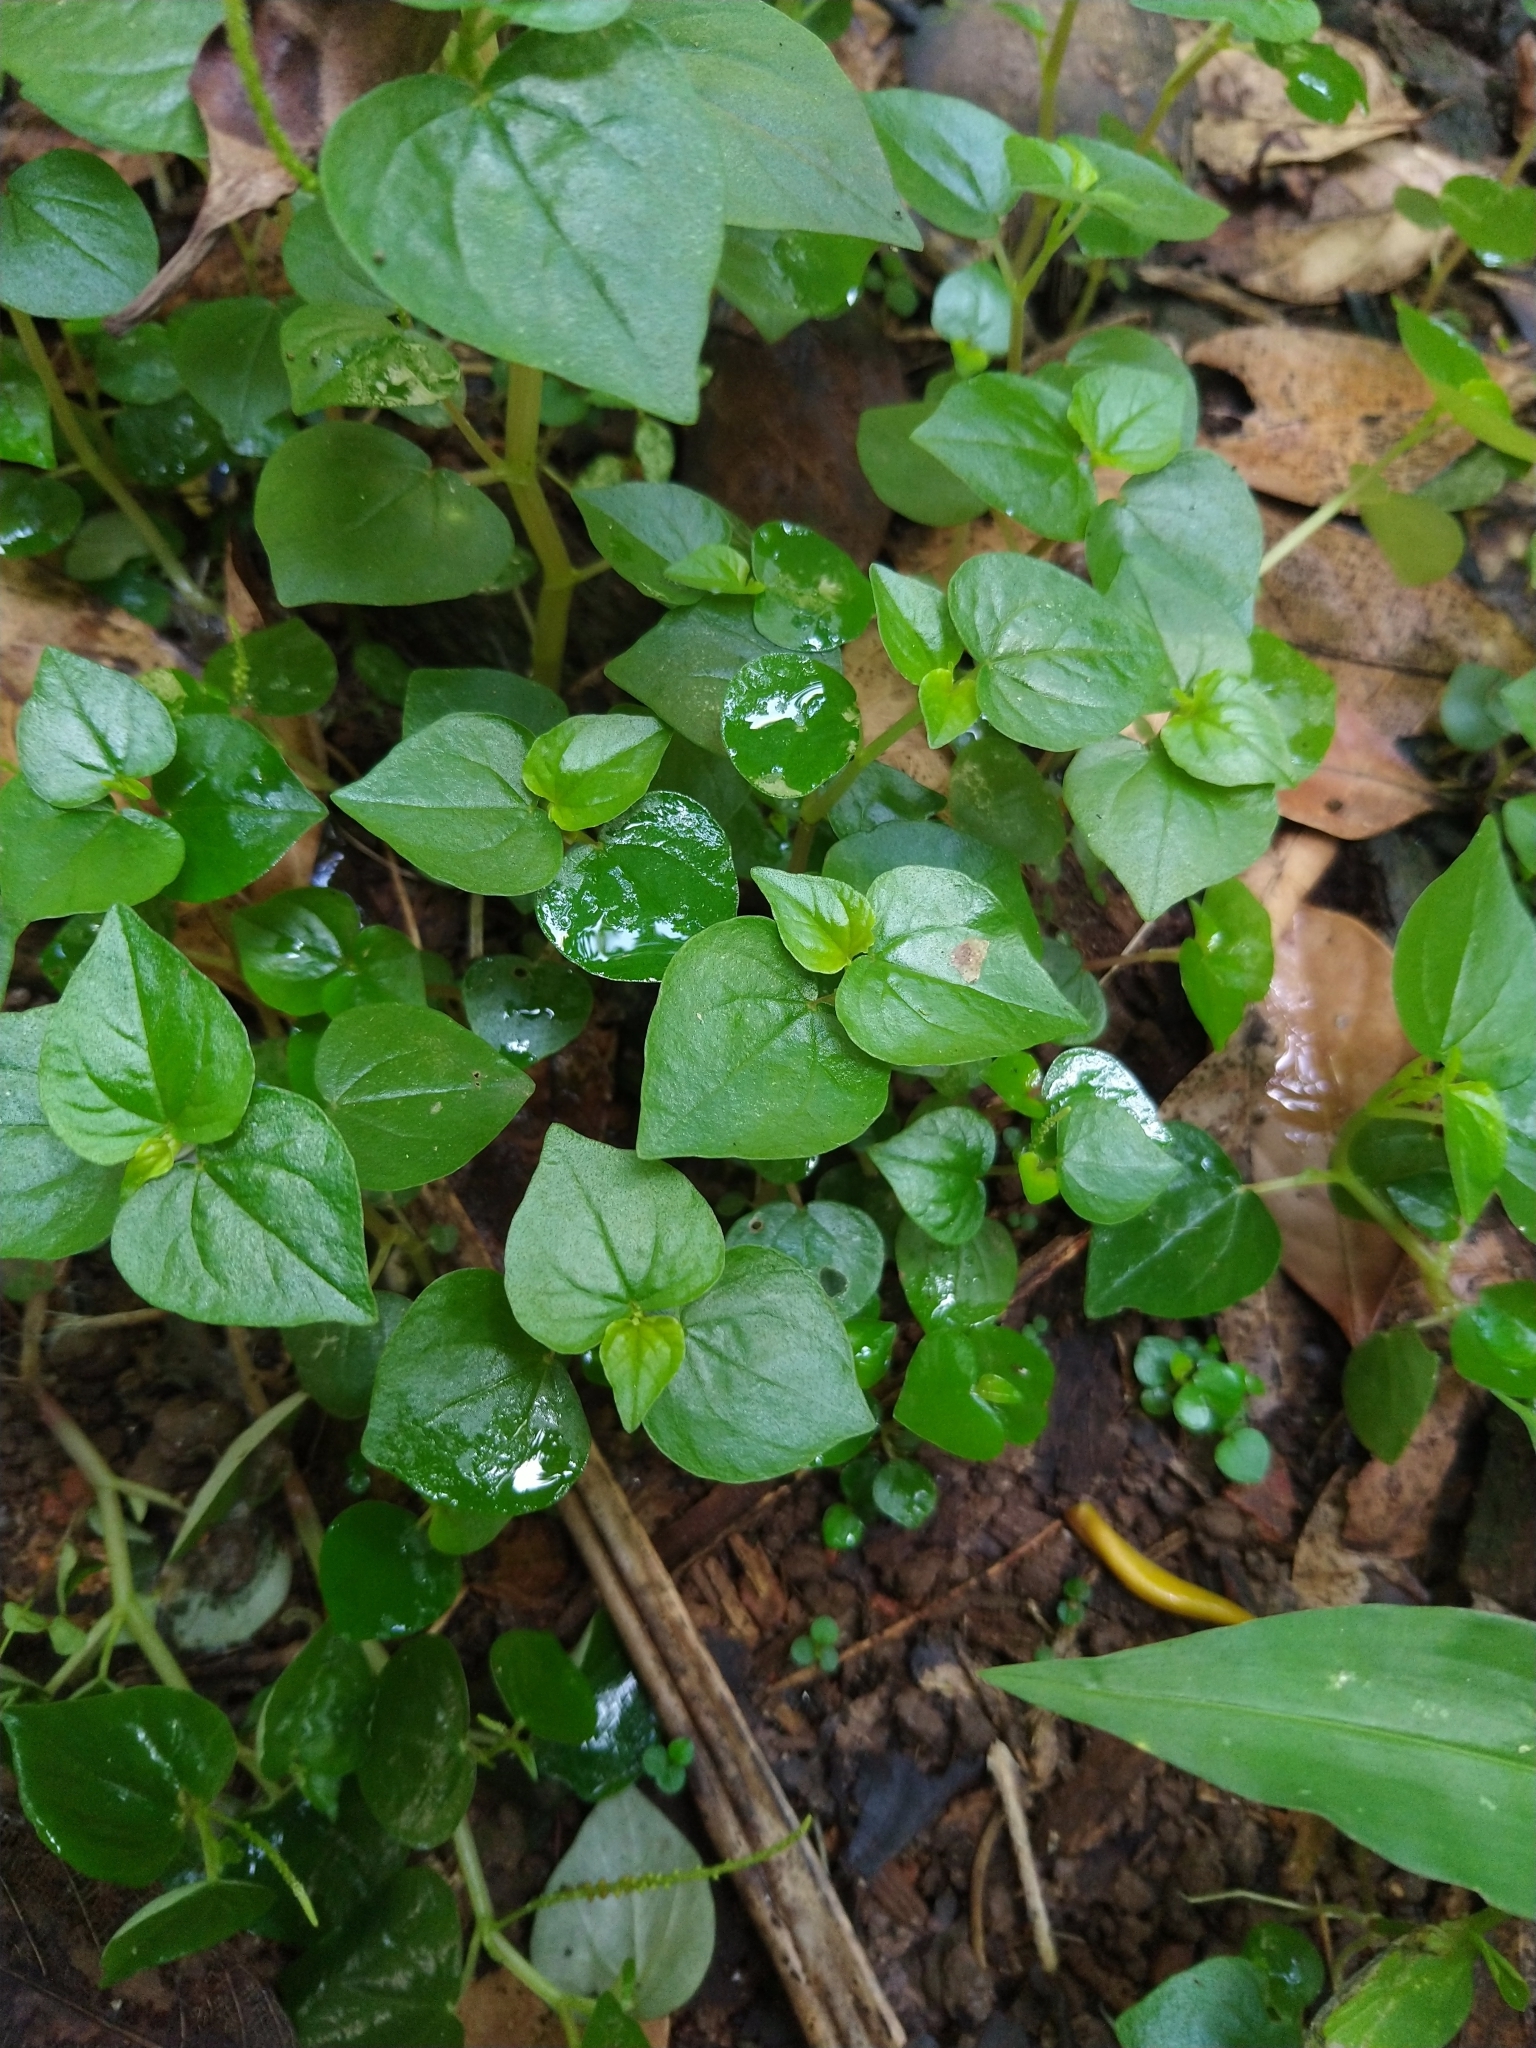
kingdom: Plantae
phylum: Tracheophyta
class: Magnoliopsida
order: Piperales
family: Piperaceae
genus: Peperomia
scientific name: Peperomia pellucida
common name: Man to man
